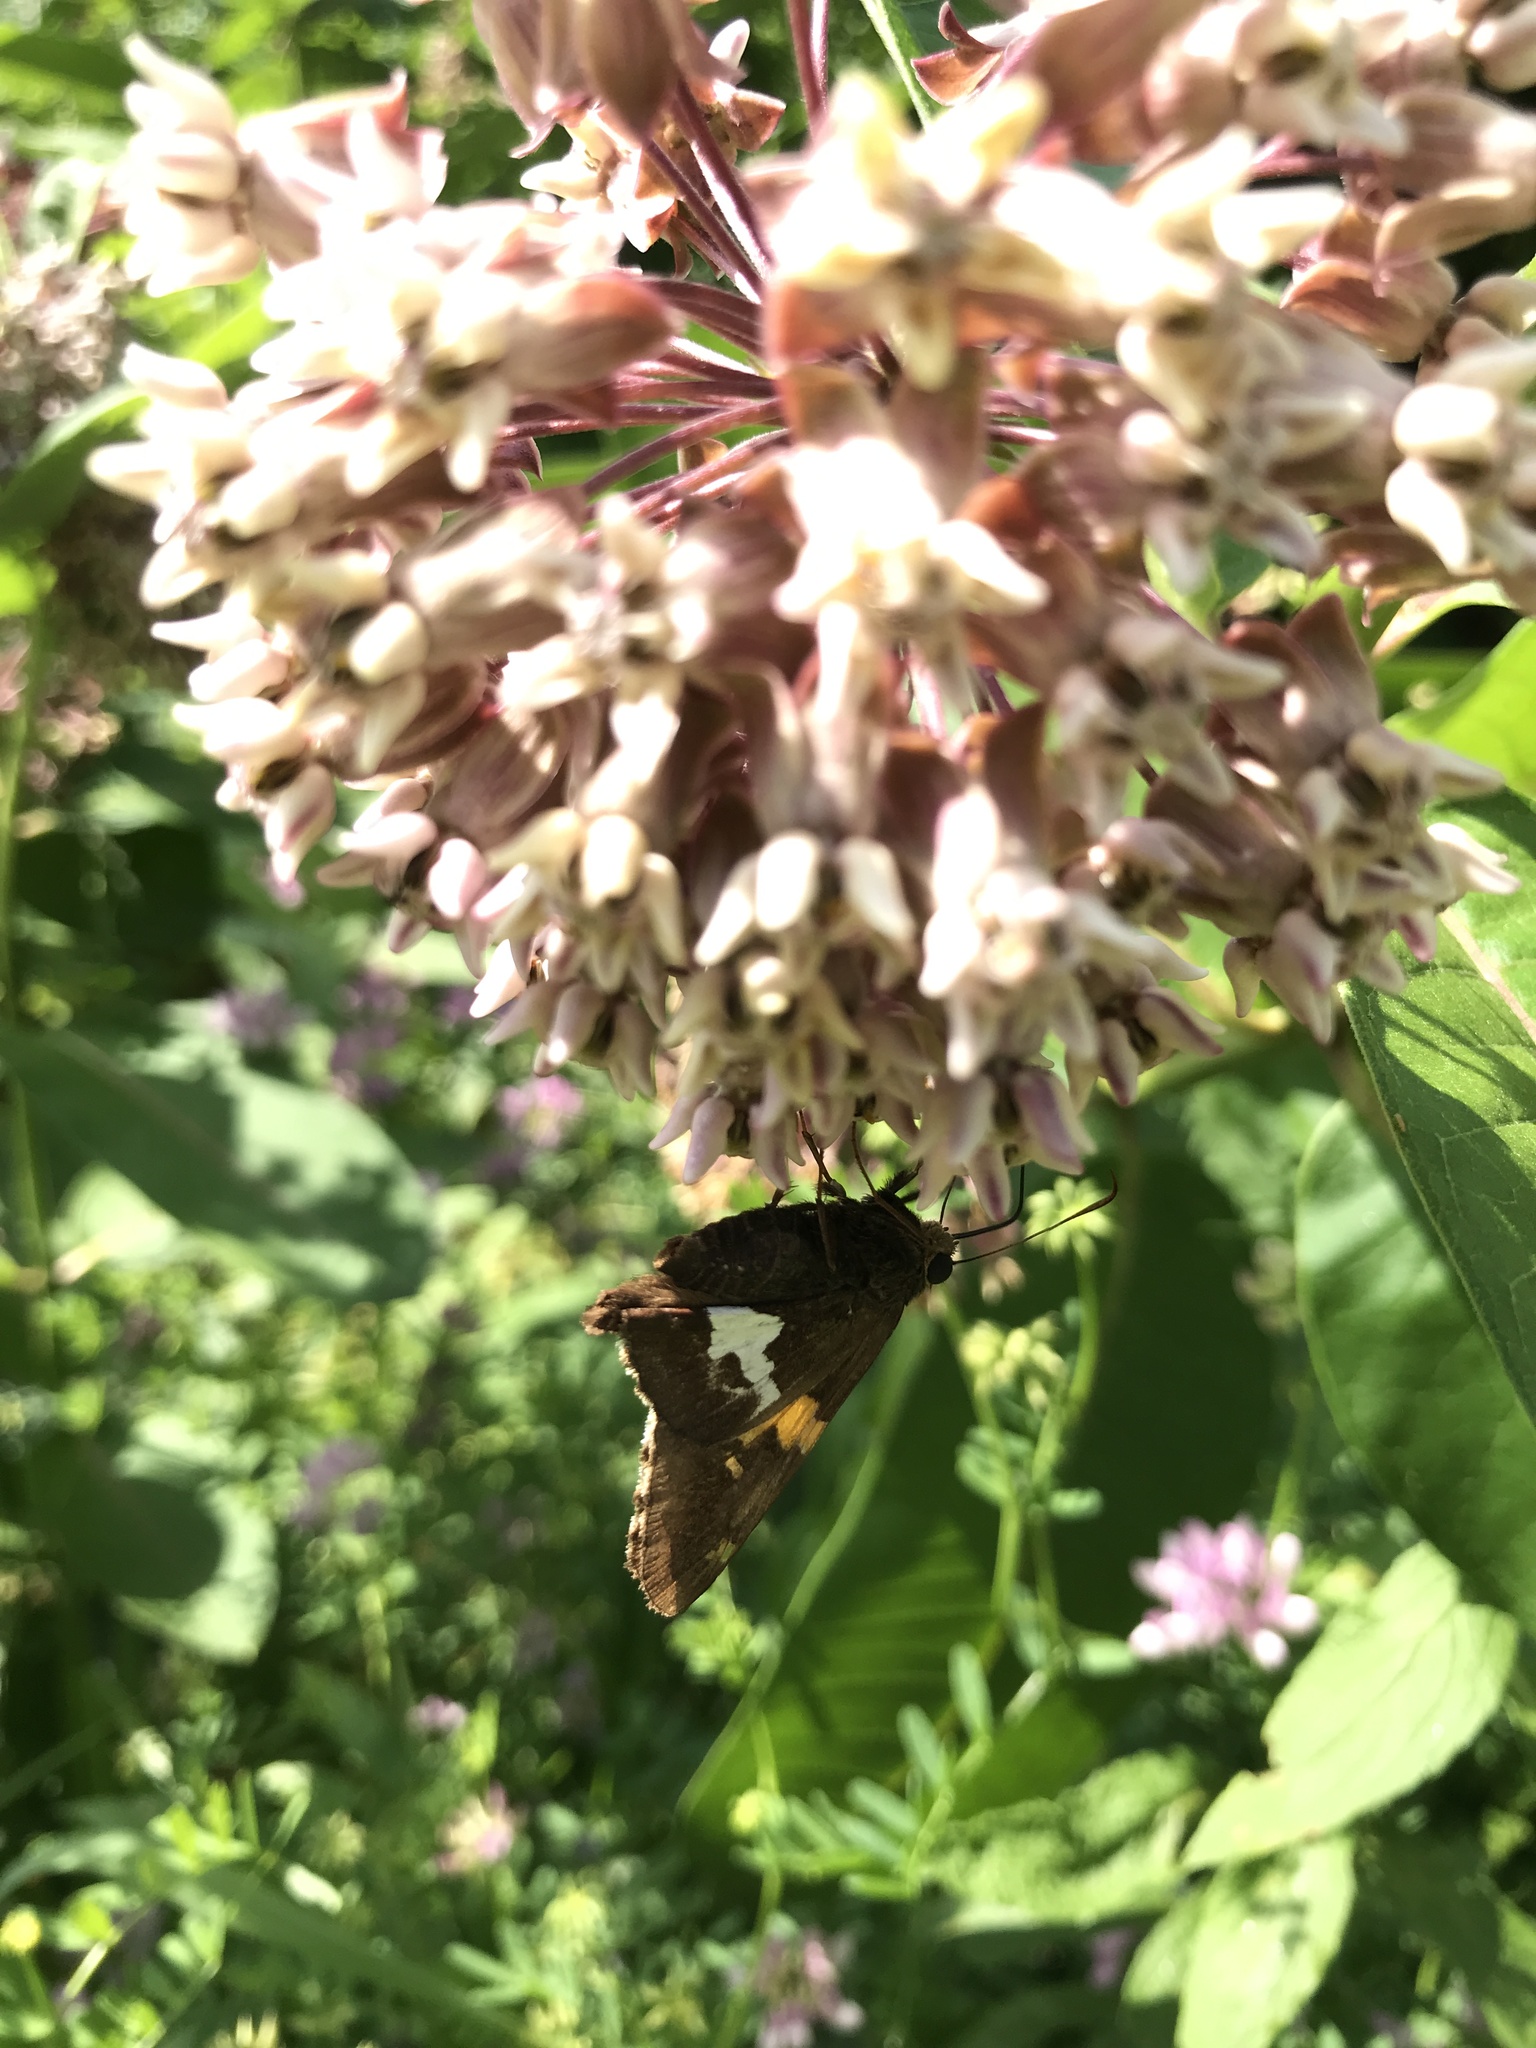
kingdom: Animalia
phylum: Arthropoda
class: Insecta
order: Lepidoptera
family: Hesperiidae
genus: Epargyreus
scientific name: Epargyreus clarus
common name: Silver-spotted skipper
